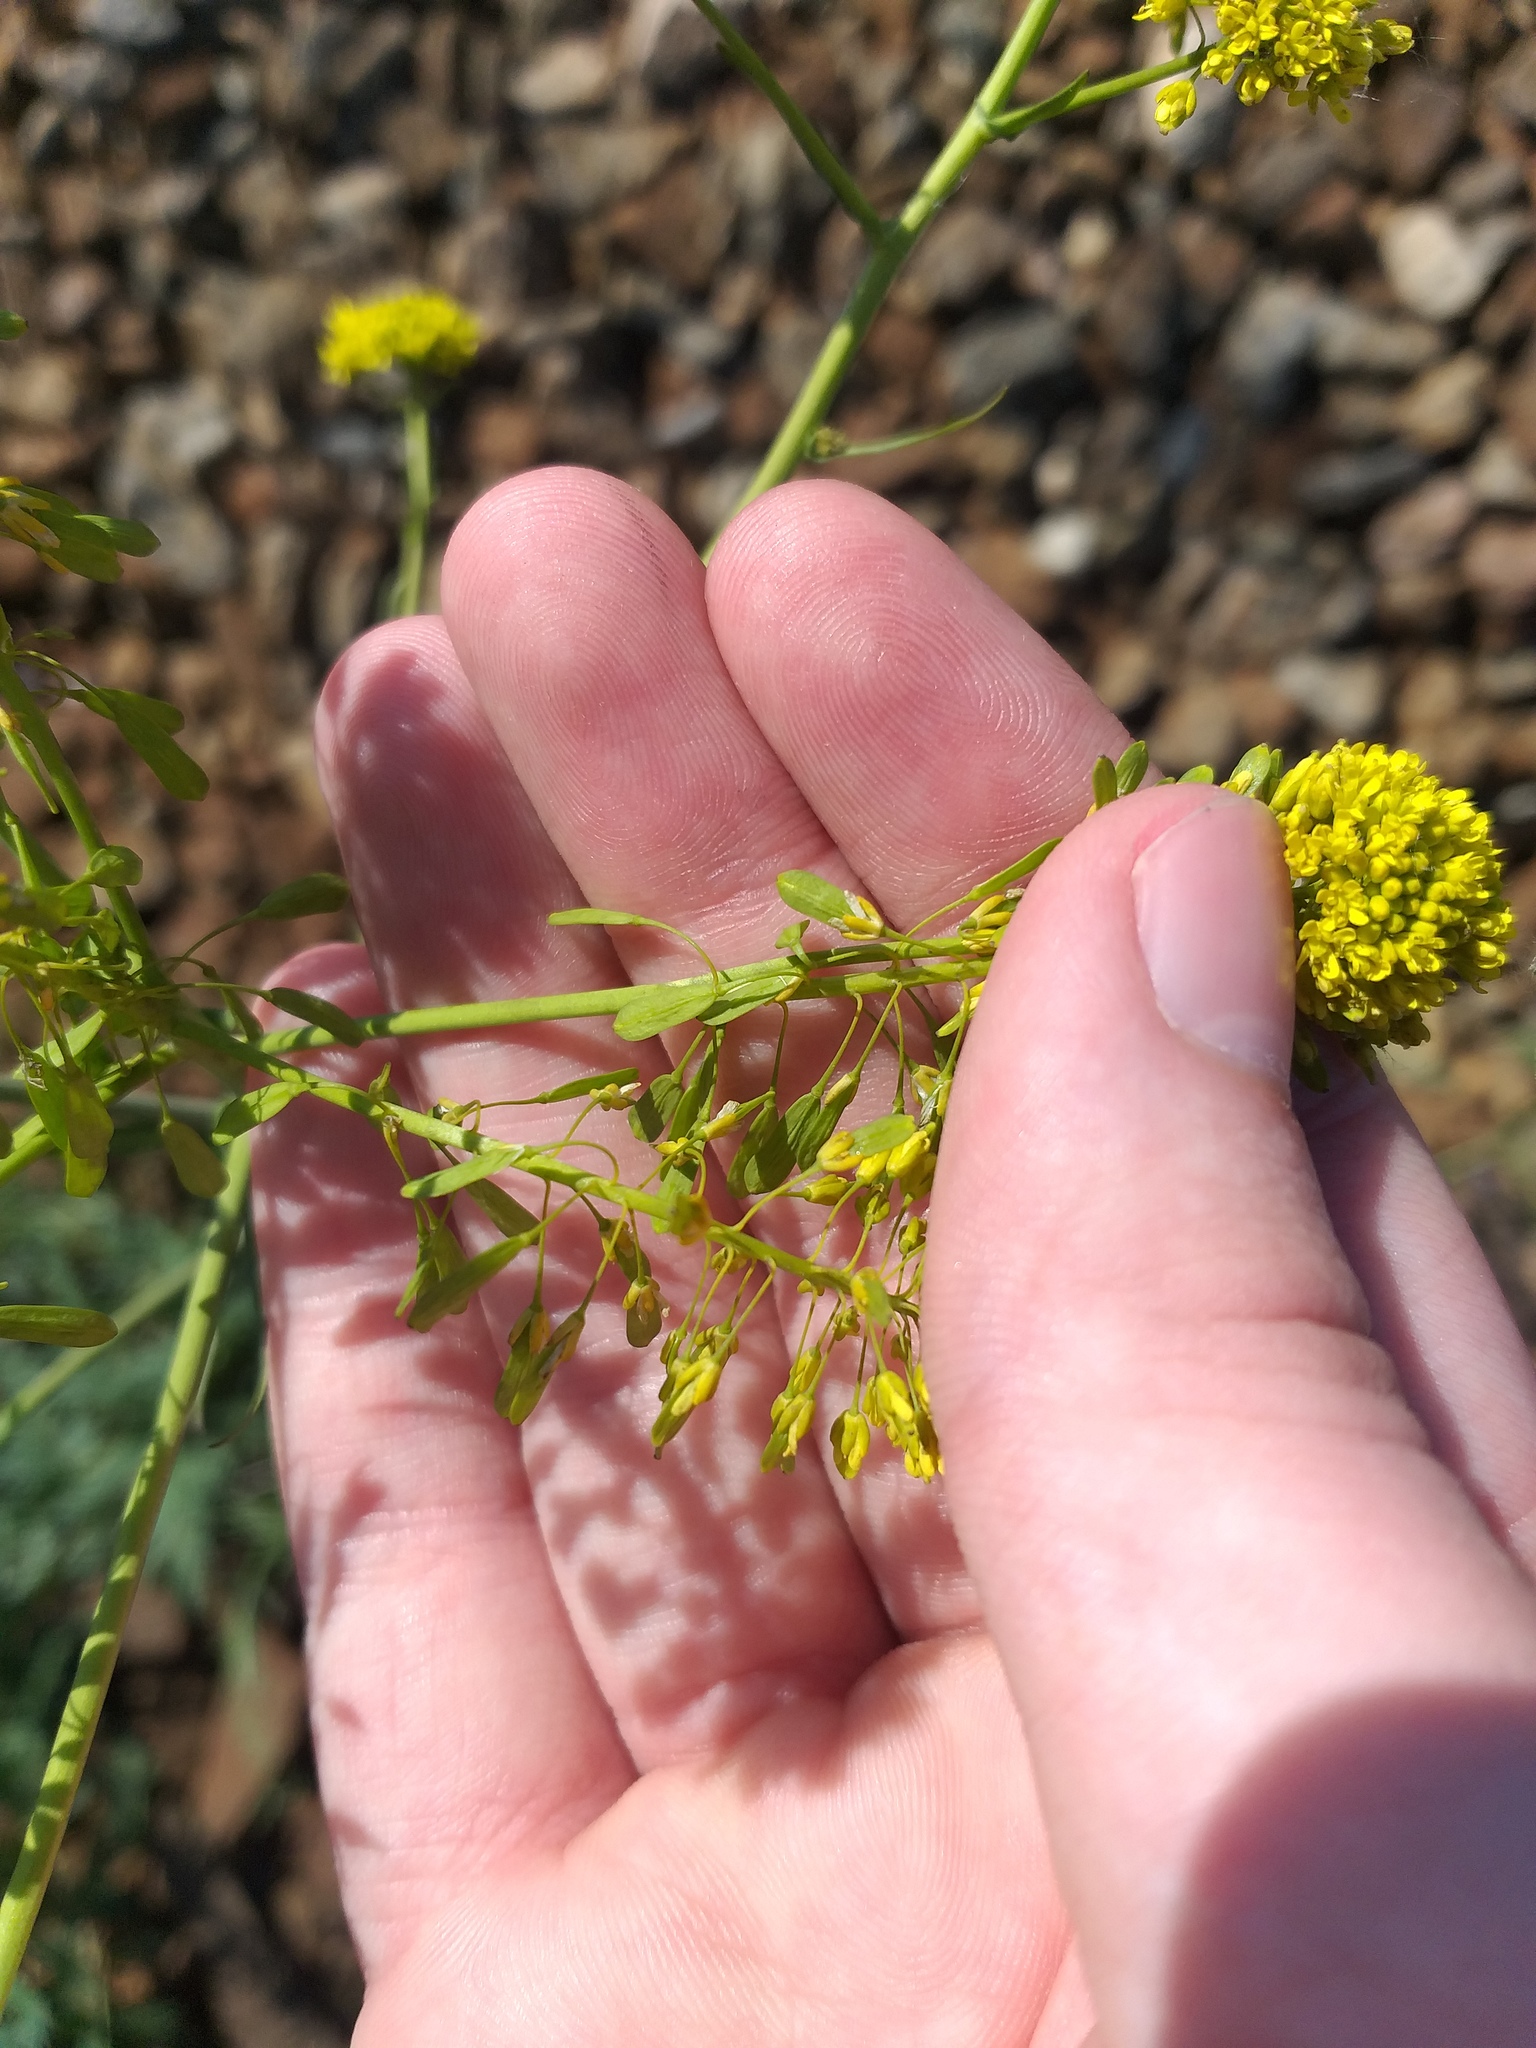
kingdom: Plantae
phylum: Tracheophyta
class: Magnoliopsida
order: Brassicales
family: Brassicaceae
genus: Isatis
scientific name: Isatis costata
